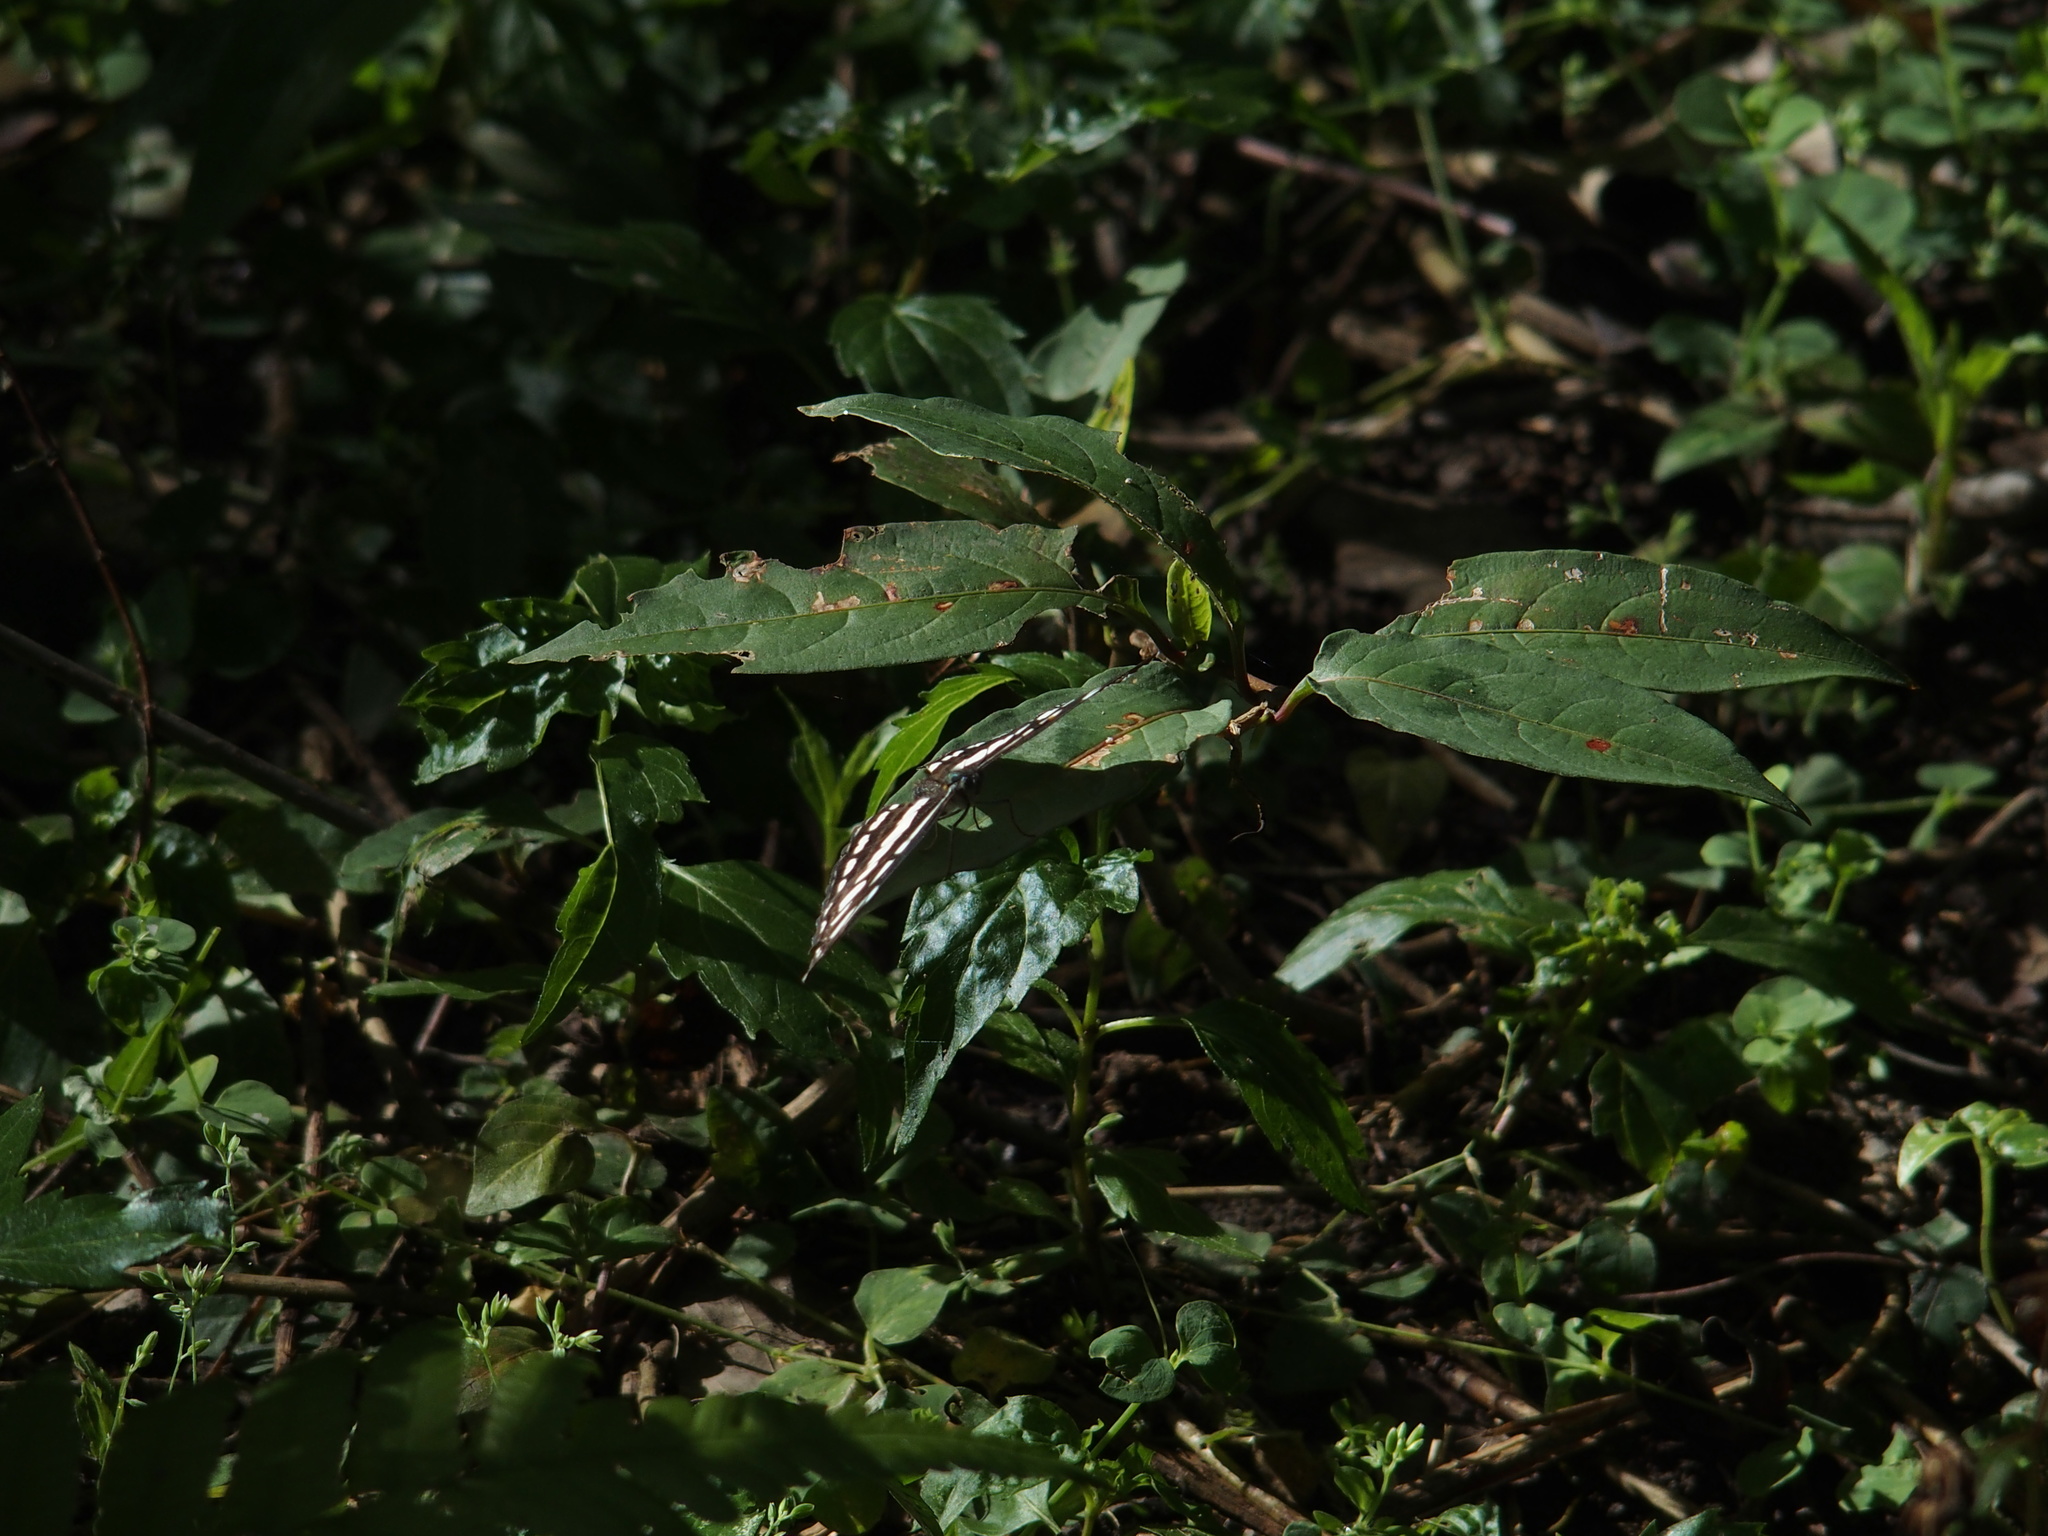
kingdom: Animalia
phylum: Arthropoda
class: Insecta
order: Lepidoptera
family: Nymphalidae
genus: Neptis
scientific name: Neptis hylas
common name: Common sailer
